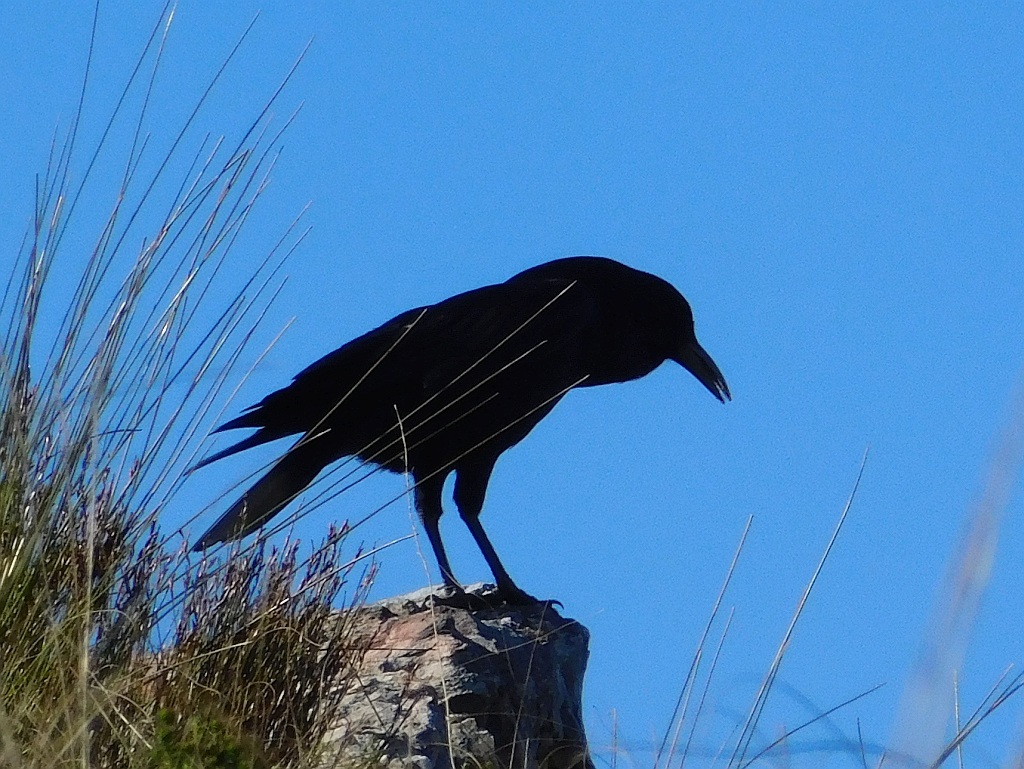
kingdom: Animalia
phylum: Chordata
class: Aves
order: Passeriformes
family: Corvidae
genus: Corvus
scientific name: Corvus capensis
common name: Cape crow
